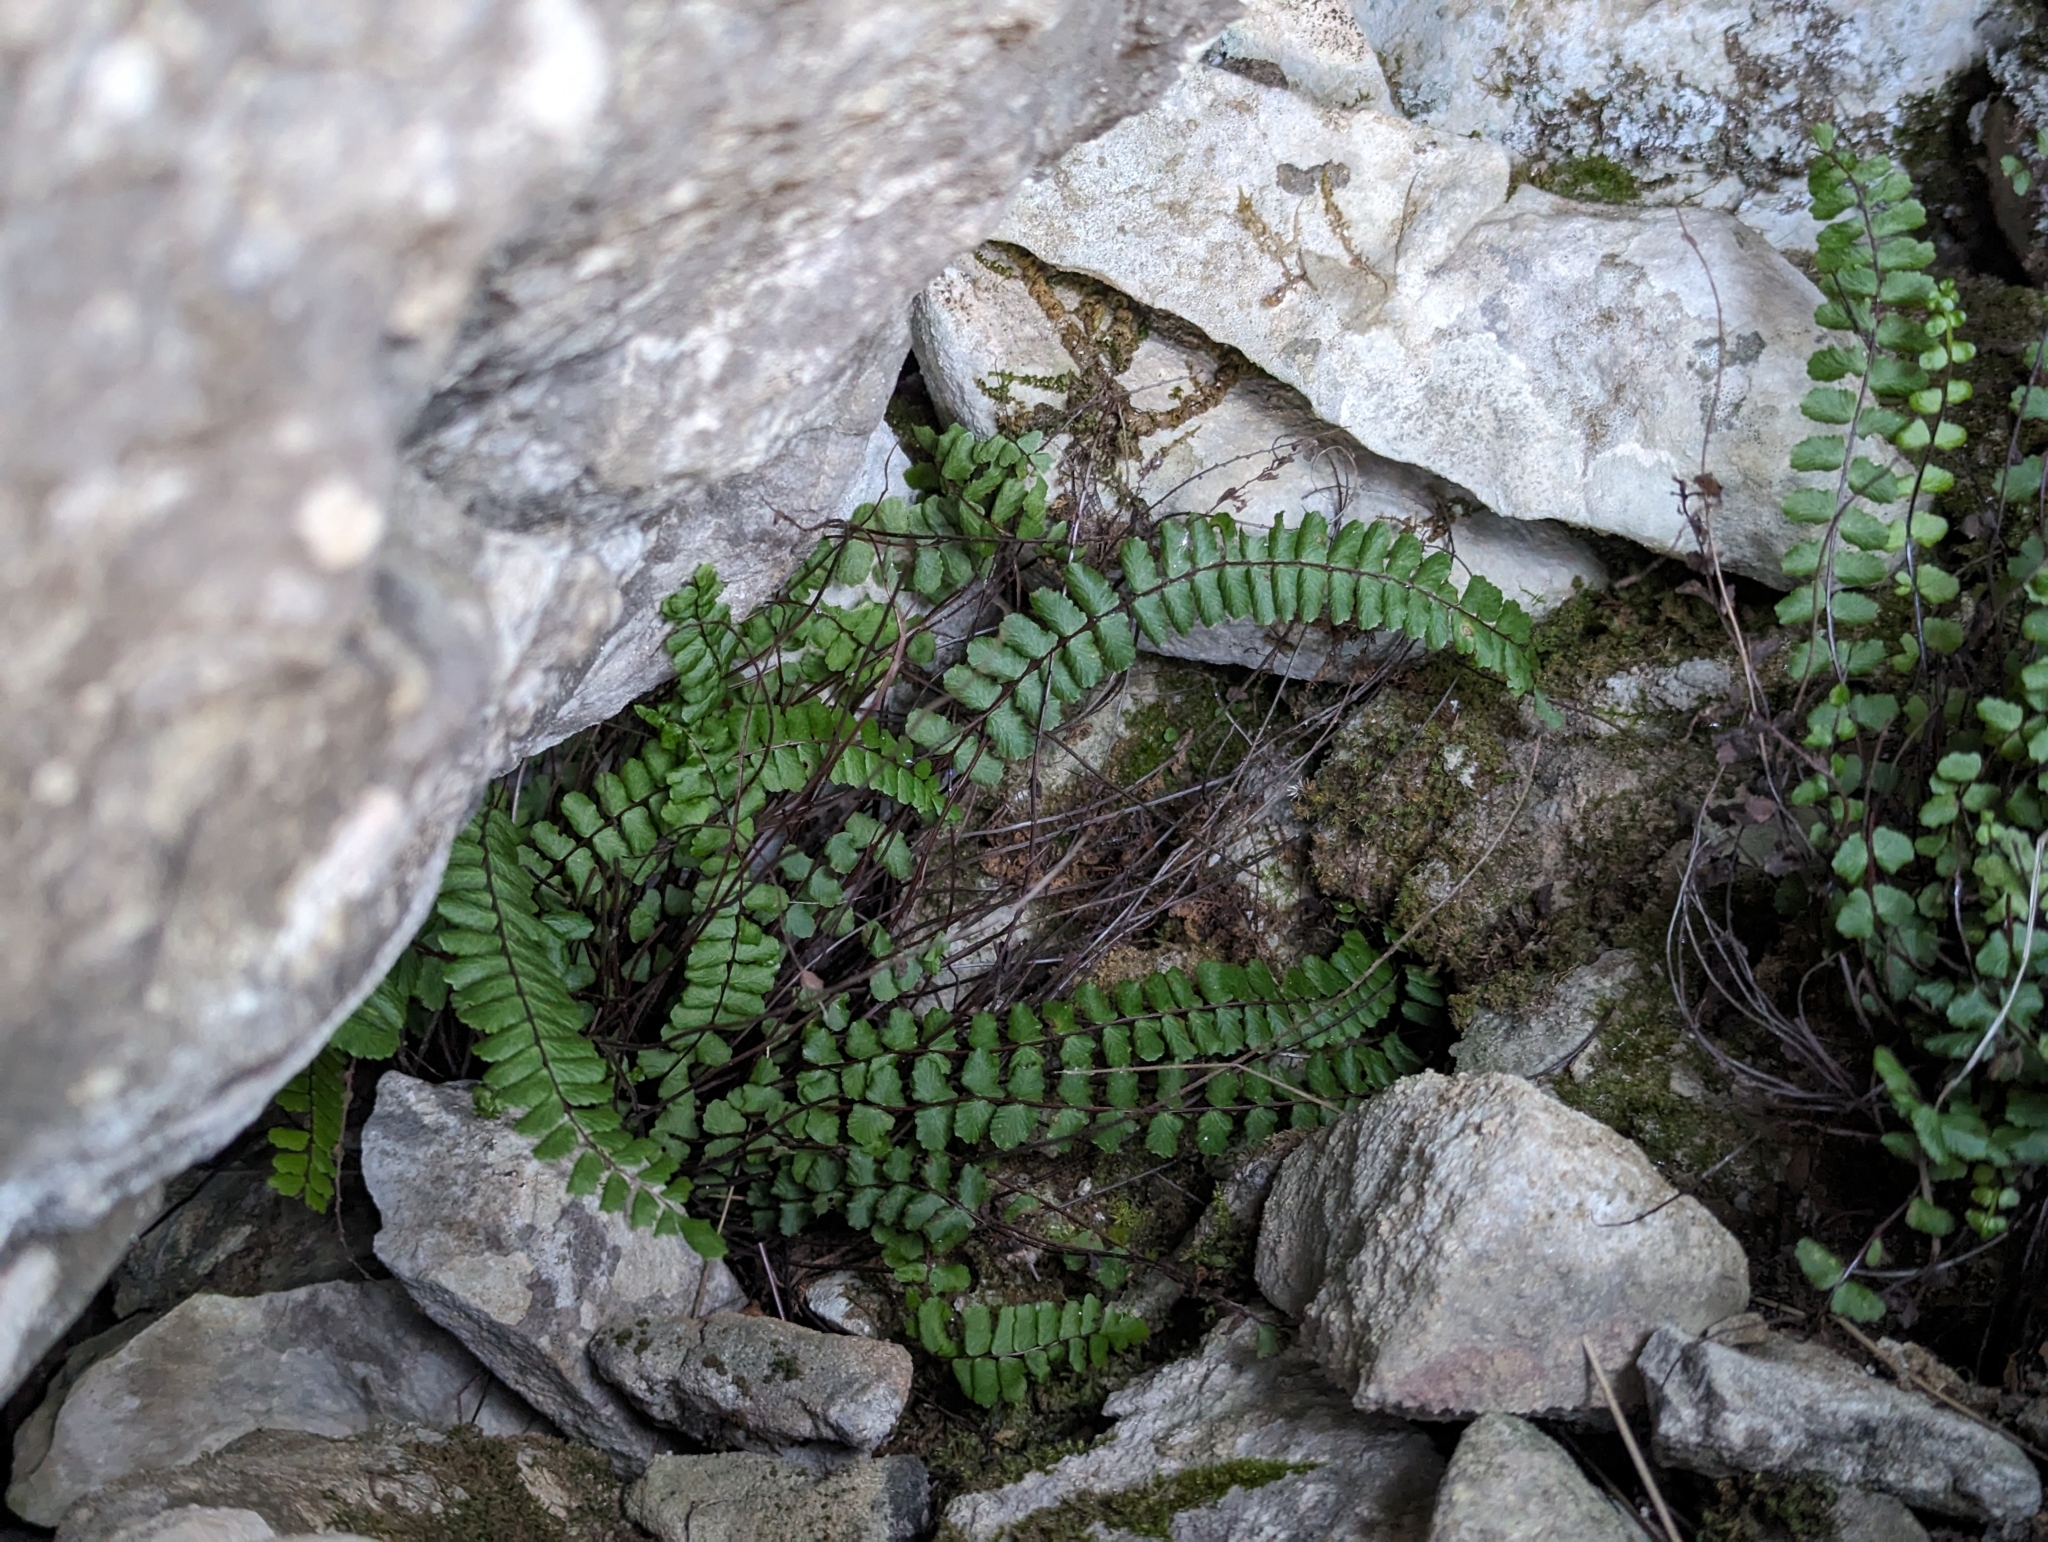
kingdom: Plantae
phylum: Tracheophyta
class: Polypodiopsida
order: Polypodiales
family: Aspleniaceae
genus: Asplenium
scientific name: Asplenium trichomanes
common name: Maidenhair spleenwort
